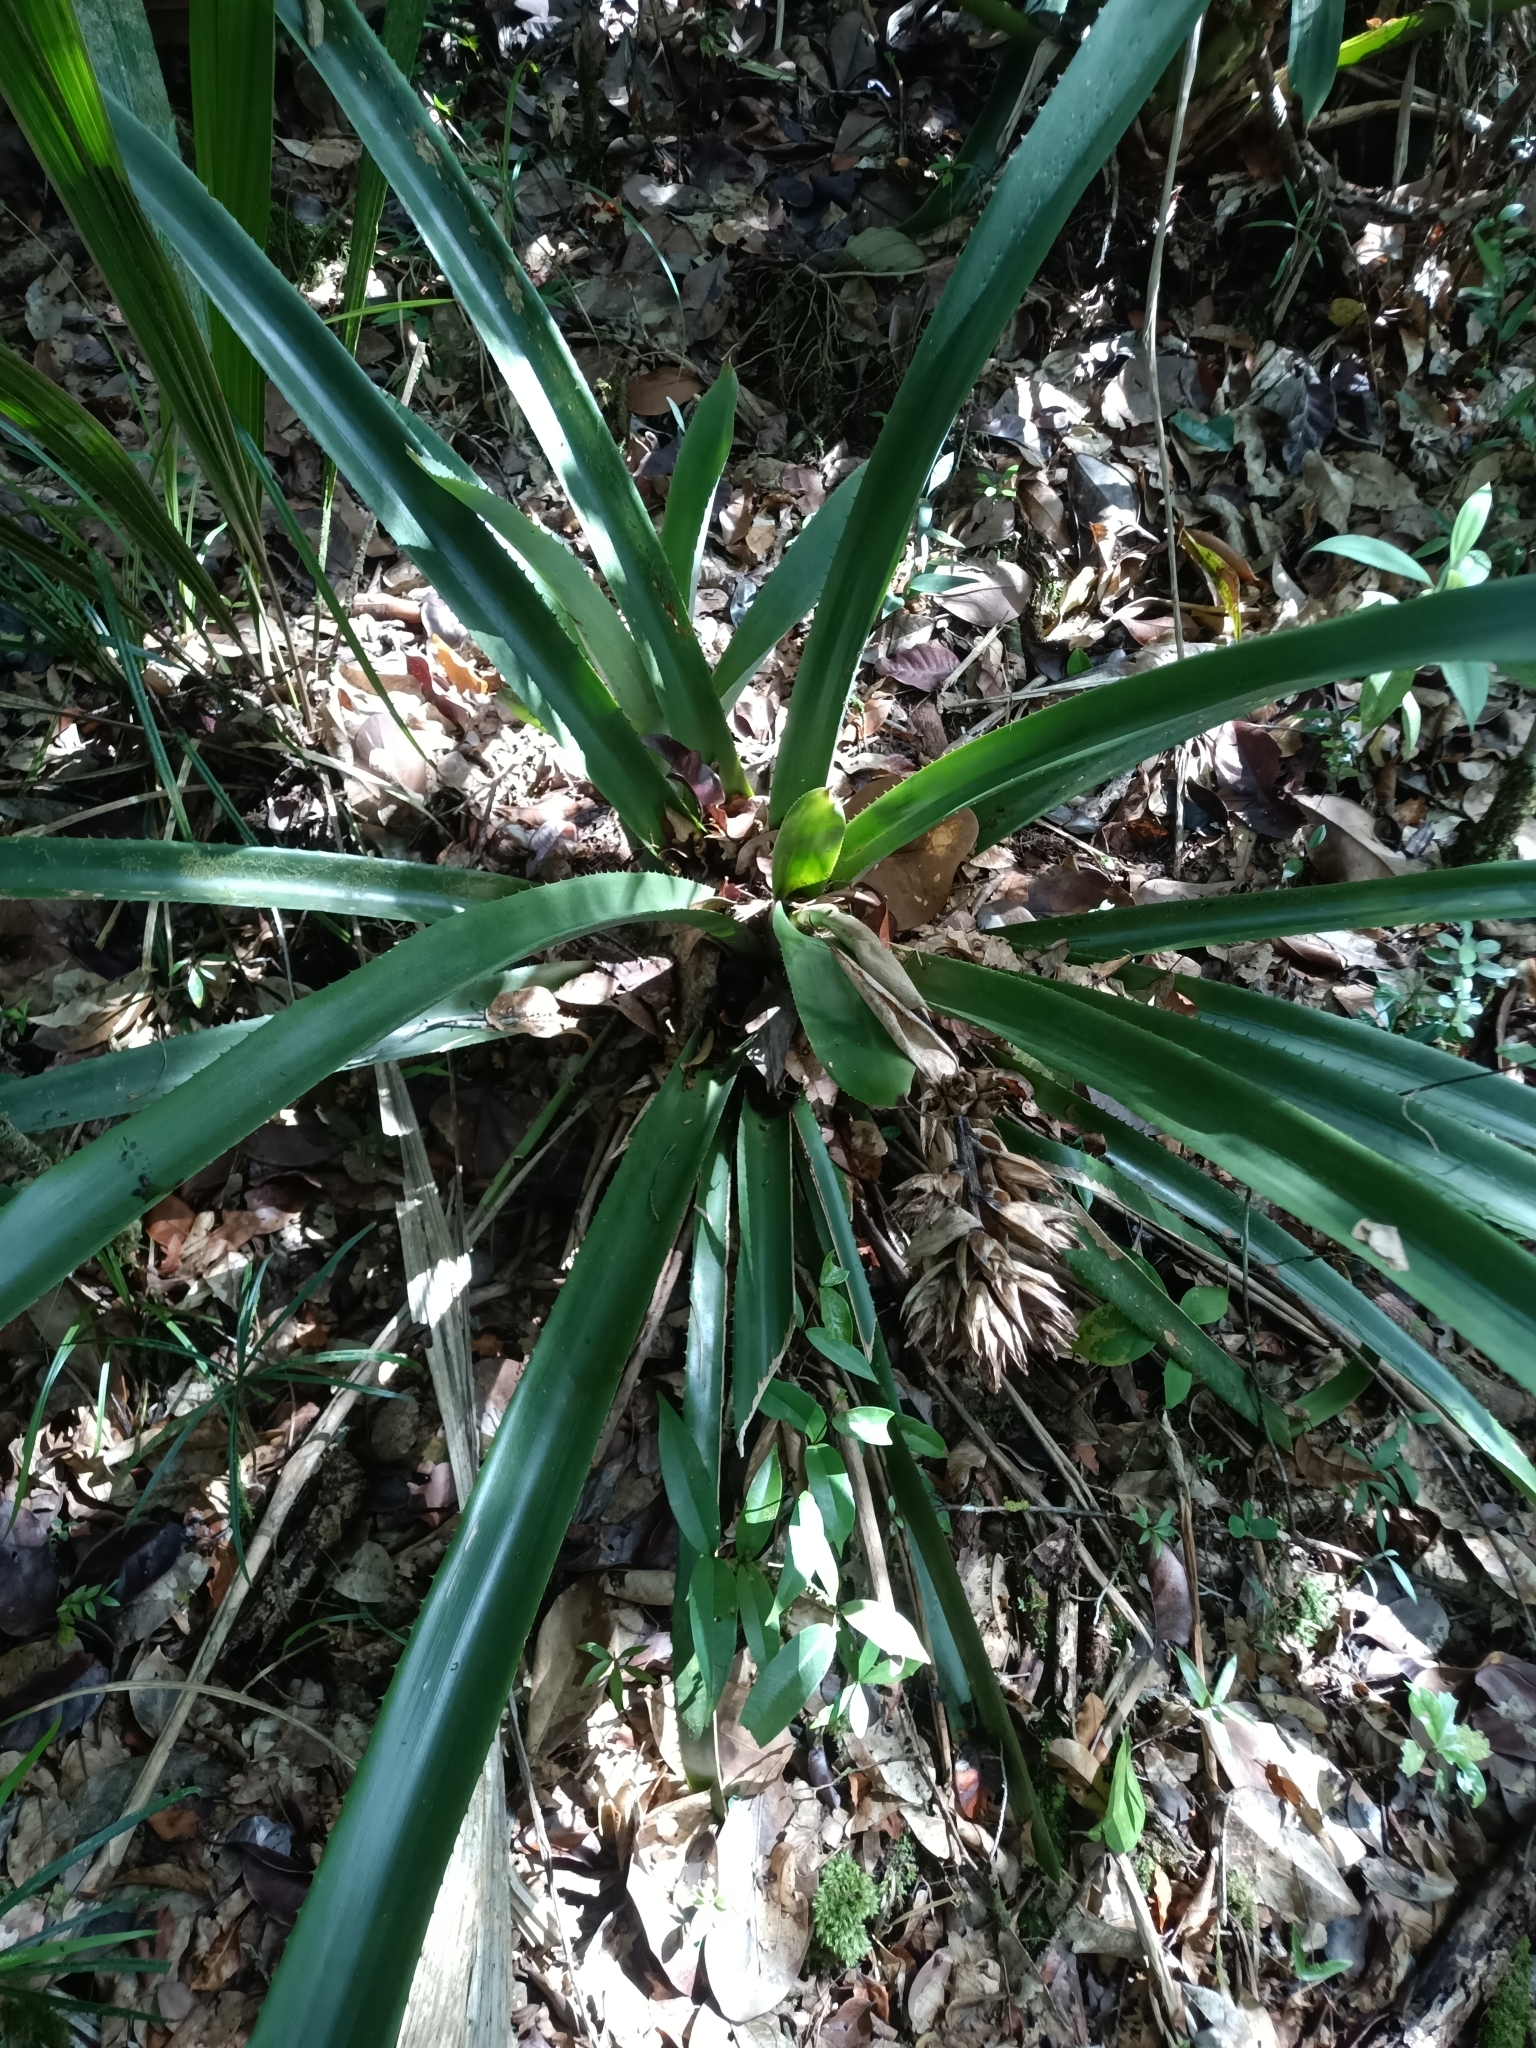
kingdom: Plantae
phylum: Tracheophyta
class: Liliopsida
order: Poales
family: Bromeliaceae
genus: Aechmea
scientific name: Aechmea aquilega
